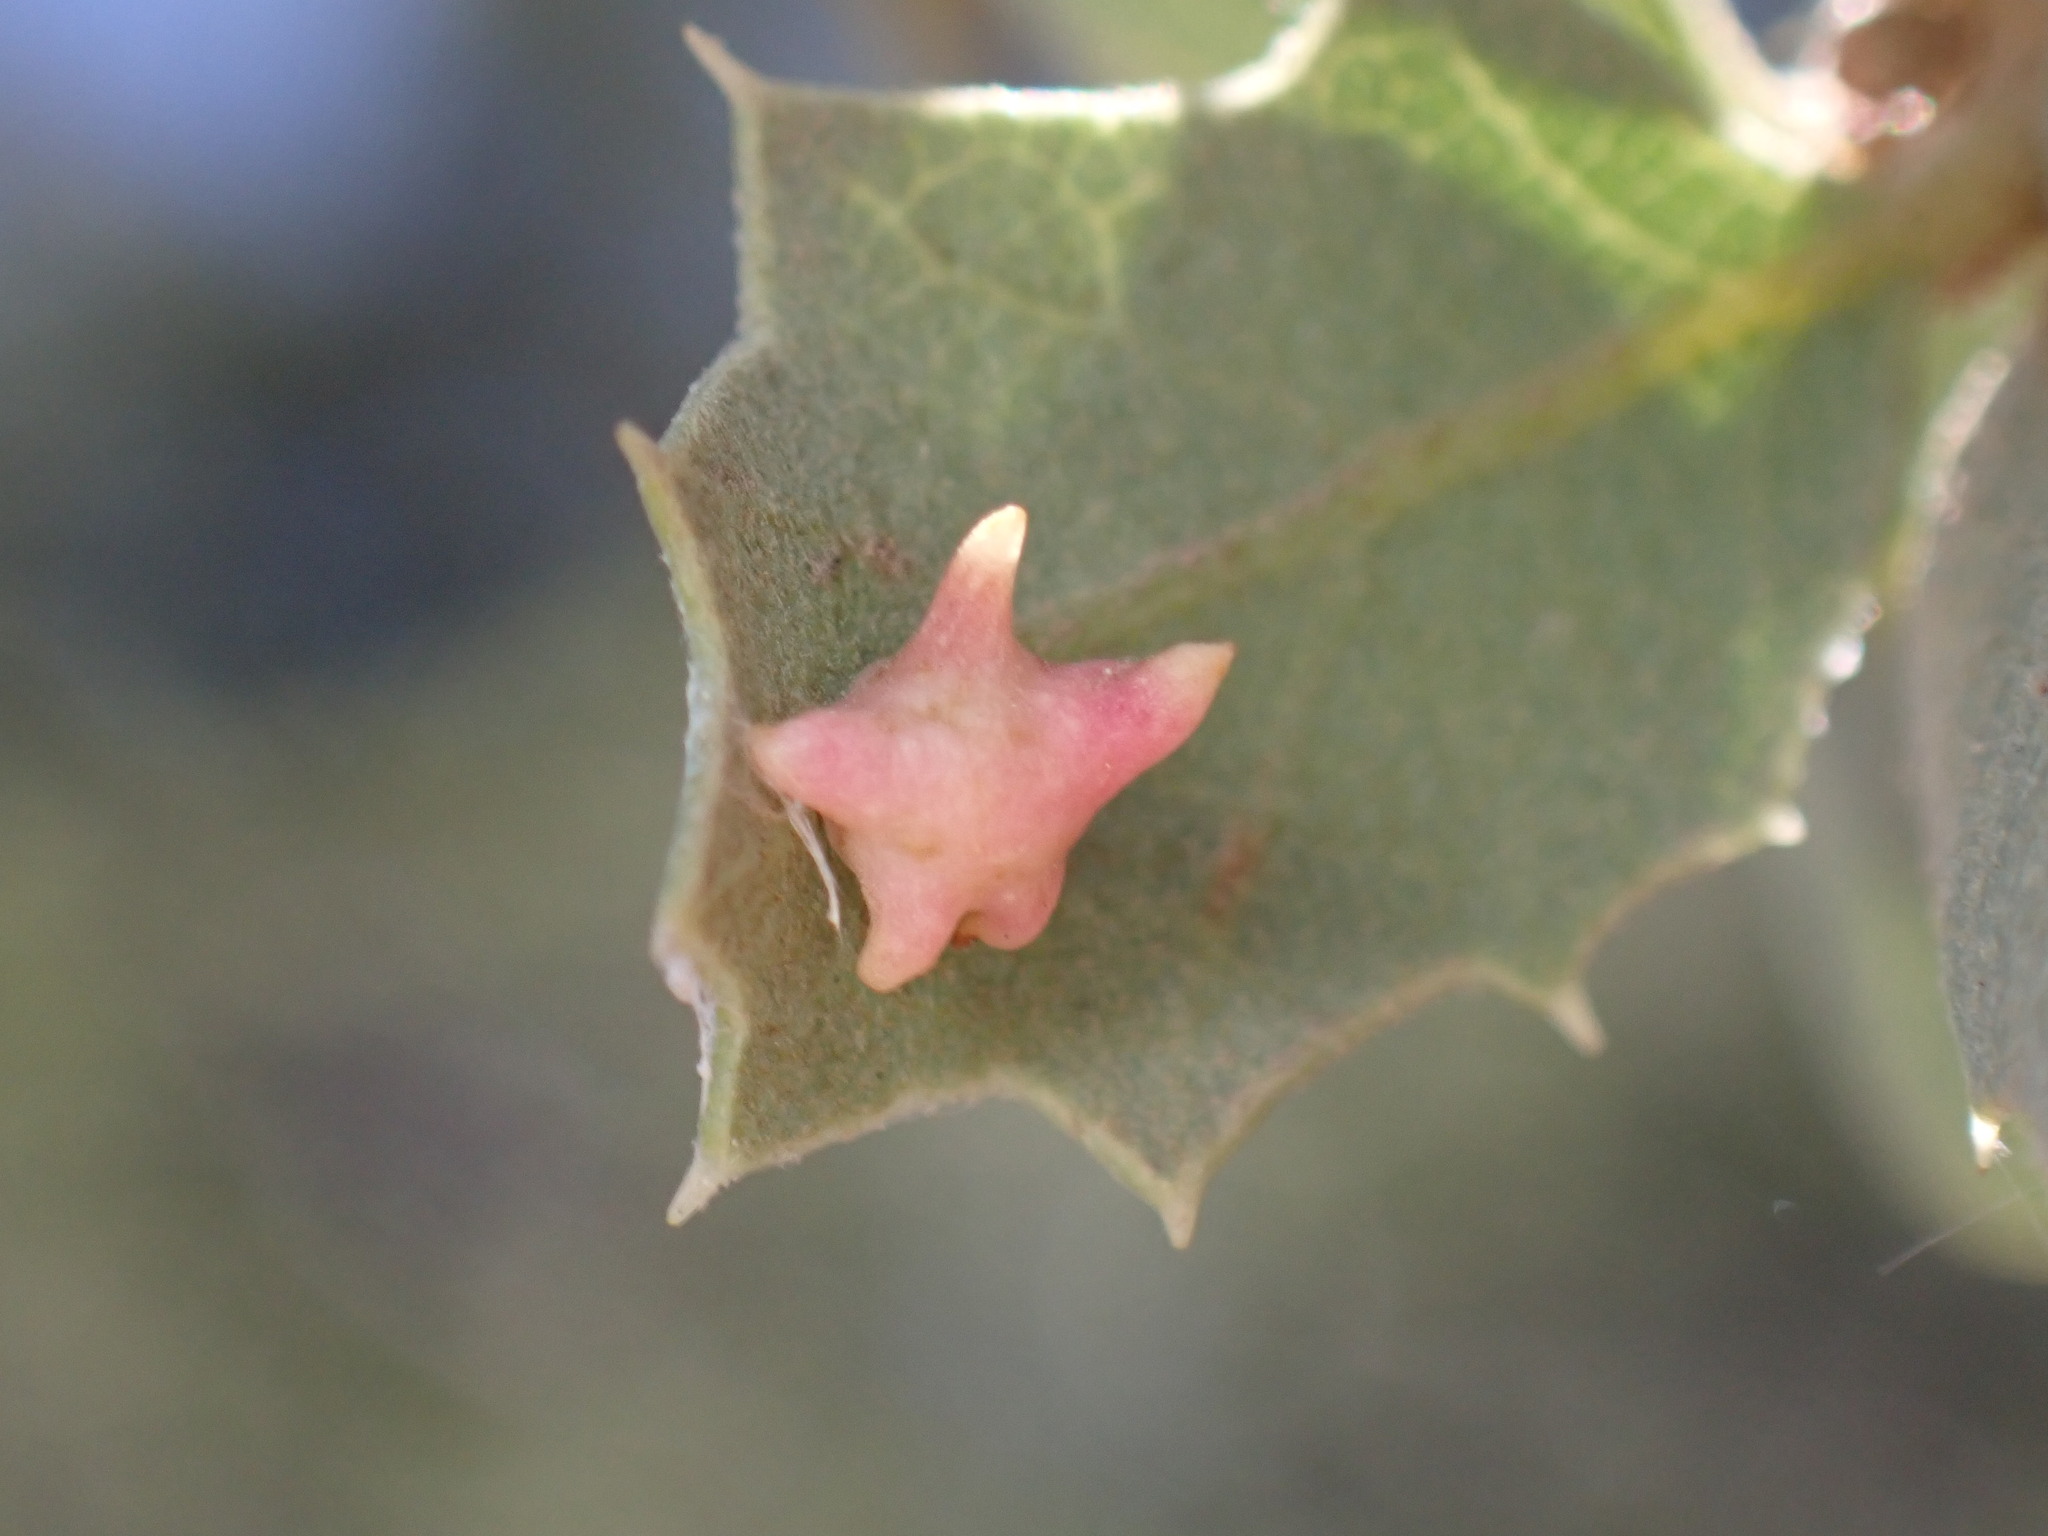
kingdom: Animalia
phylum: Arthropoda
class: Insecta
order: Hymenoptera
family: Cynipidae
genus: Cynips
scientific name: Cynips douglasi
